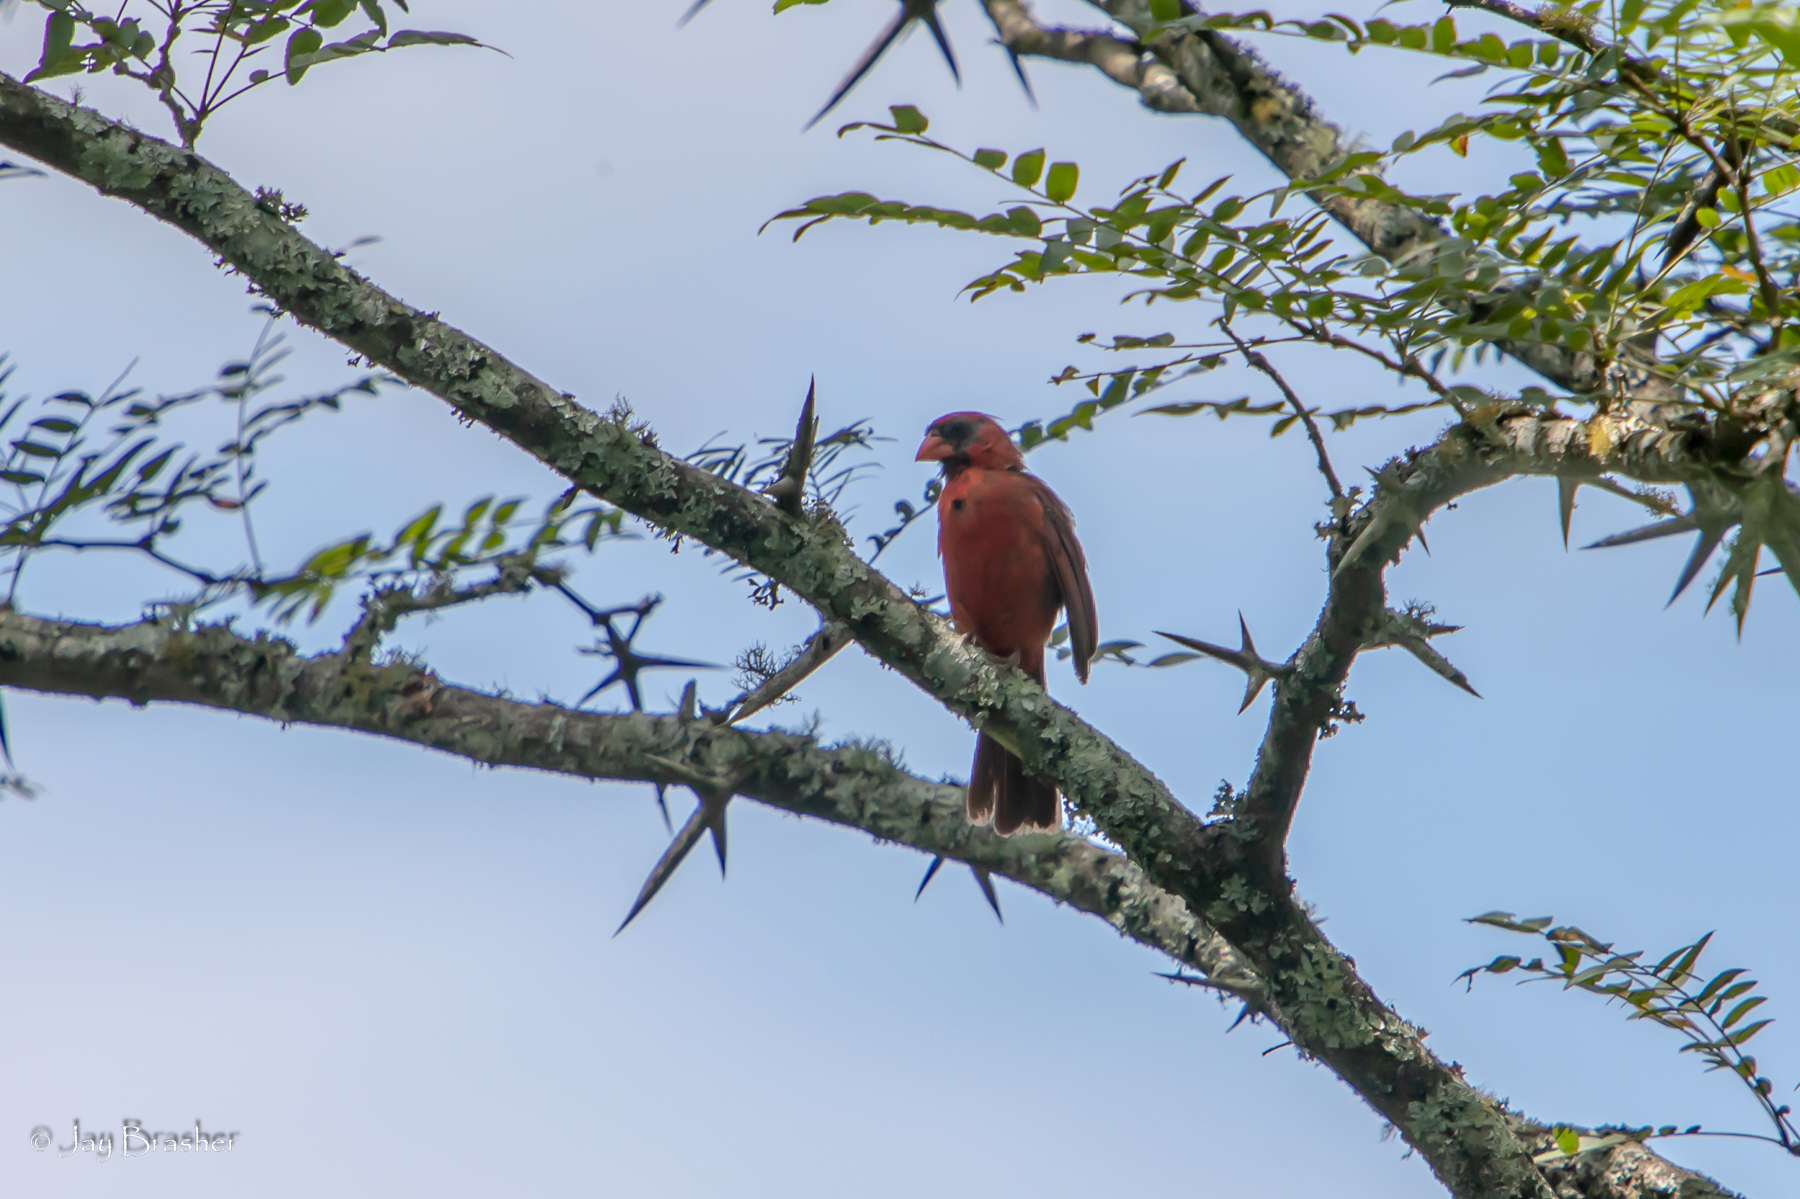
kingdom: Animalia
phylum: Chordata
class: Aves
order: Passeriformes
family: Cardinalidae
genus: Cardinalis
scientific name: Cardinalis cardinalis
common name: Northern cardinal
